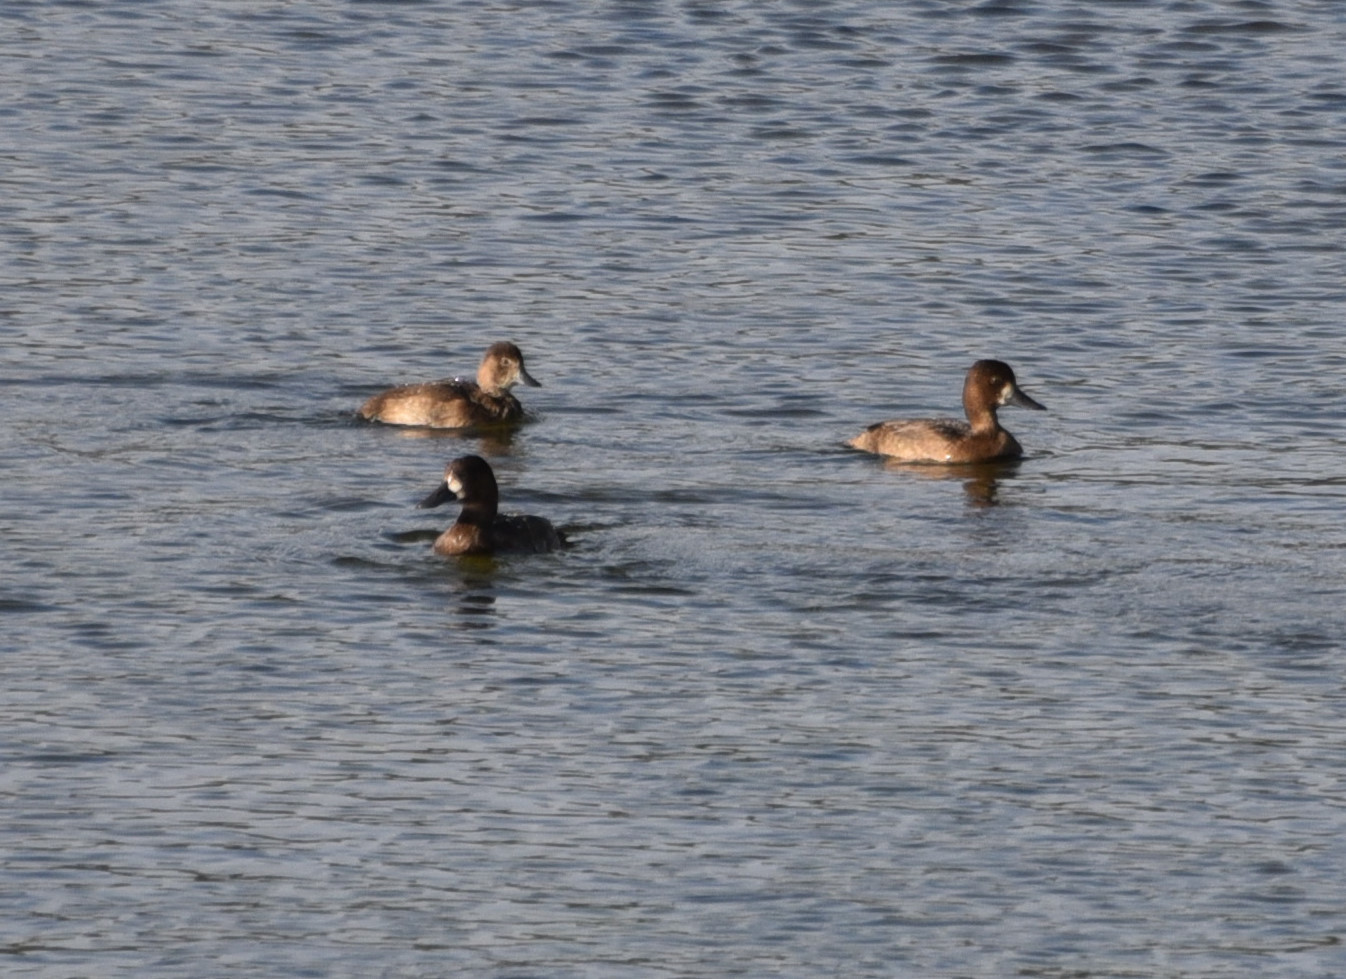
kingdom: Animalia
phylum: Chordata
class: Aves
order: Anseriformes
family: Anatidae
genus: Aythya
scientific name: Aythya affinis
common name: Lesser scaup
